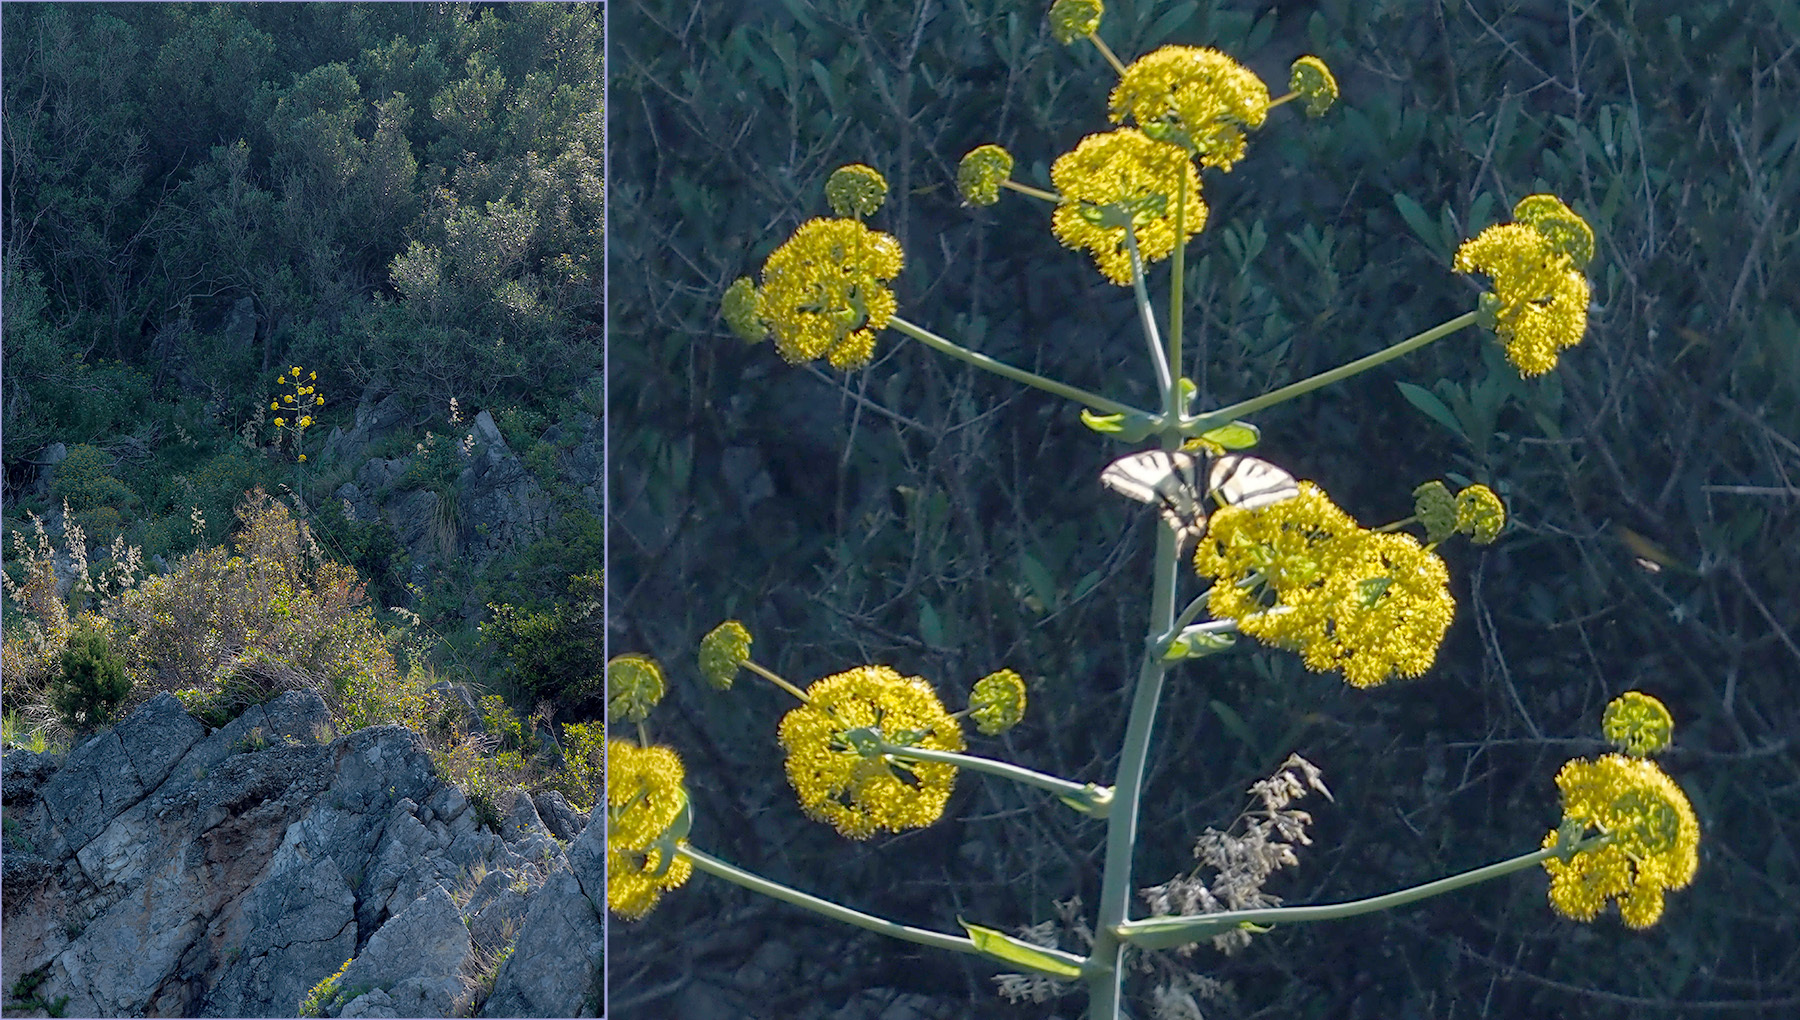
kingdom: Animalia
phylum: Arthropoda
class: Insecta
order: Lepidoptera
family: Papilionidae
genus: Papilio
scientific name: Papilio alexanor
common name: Southern swallowtail
